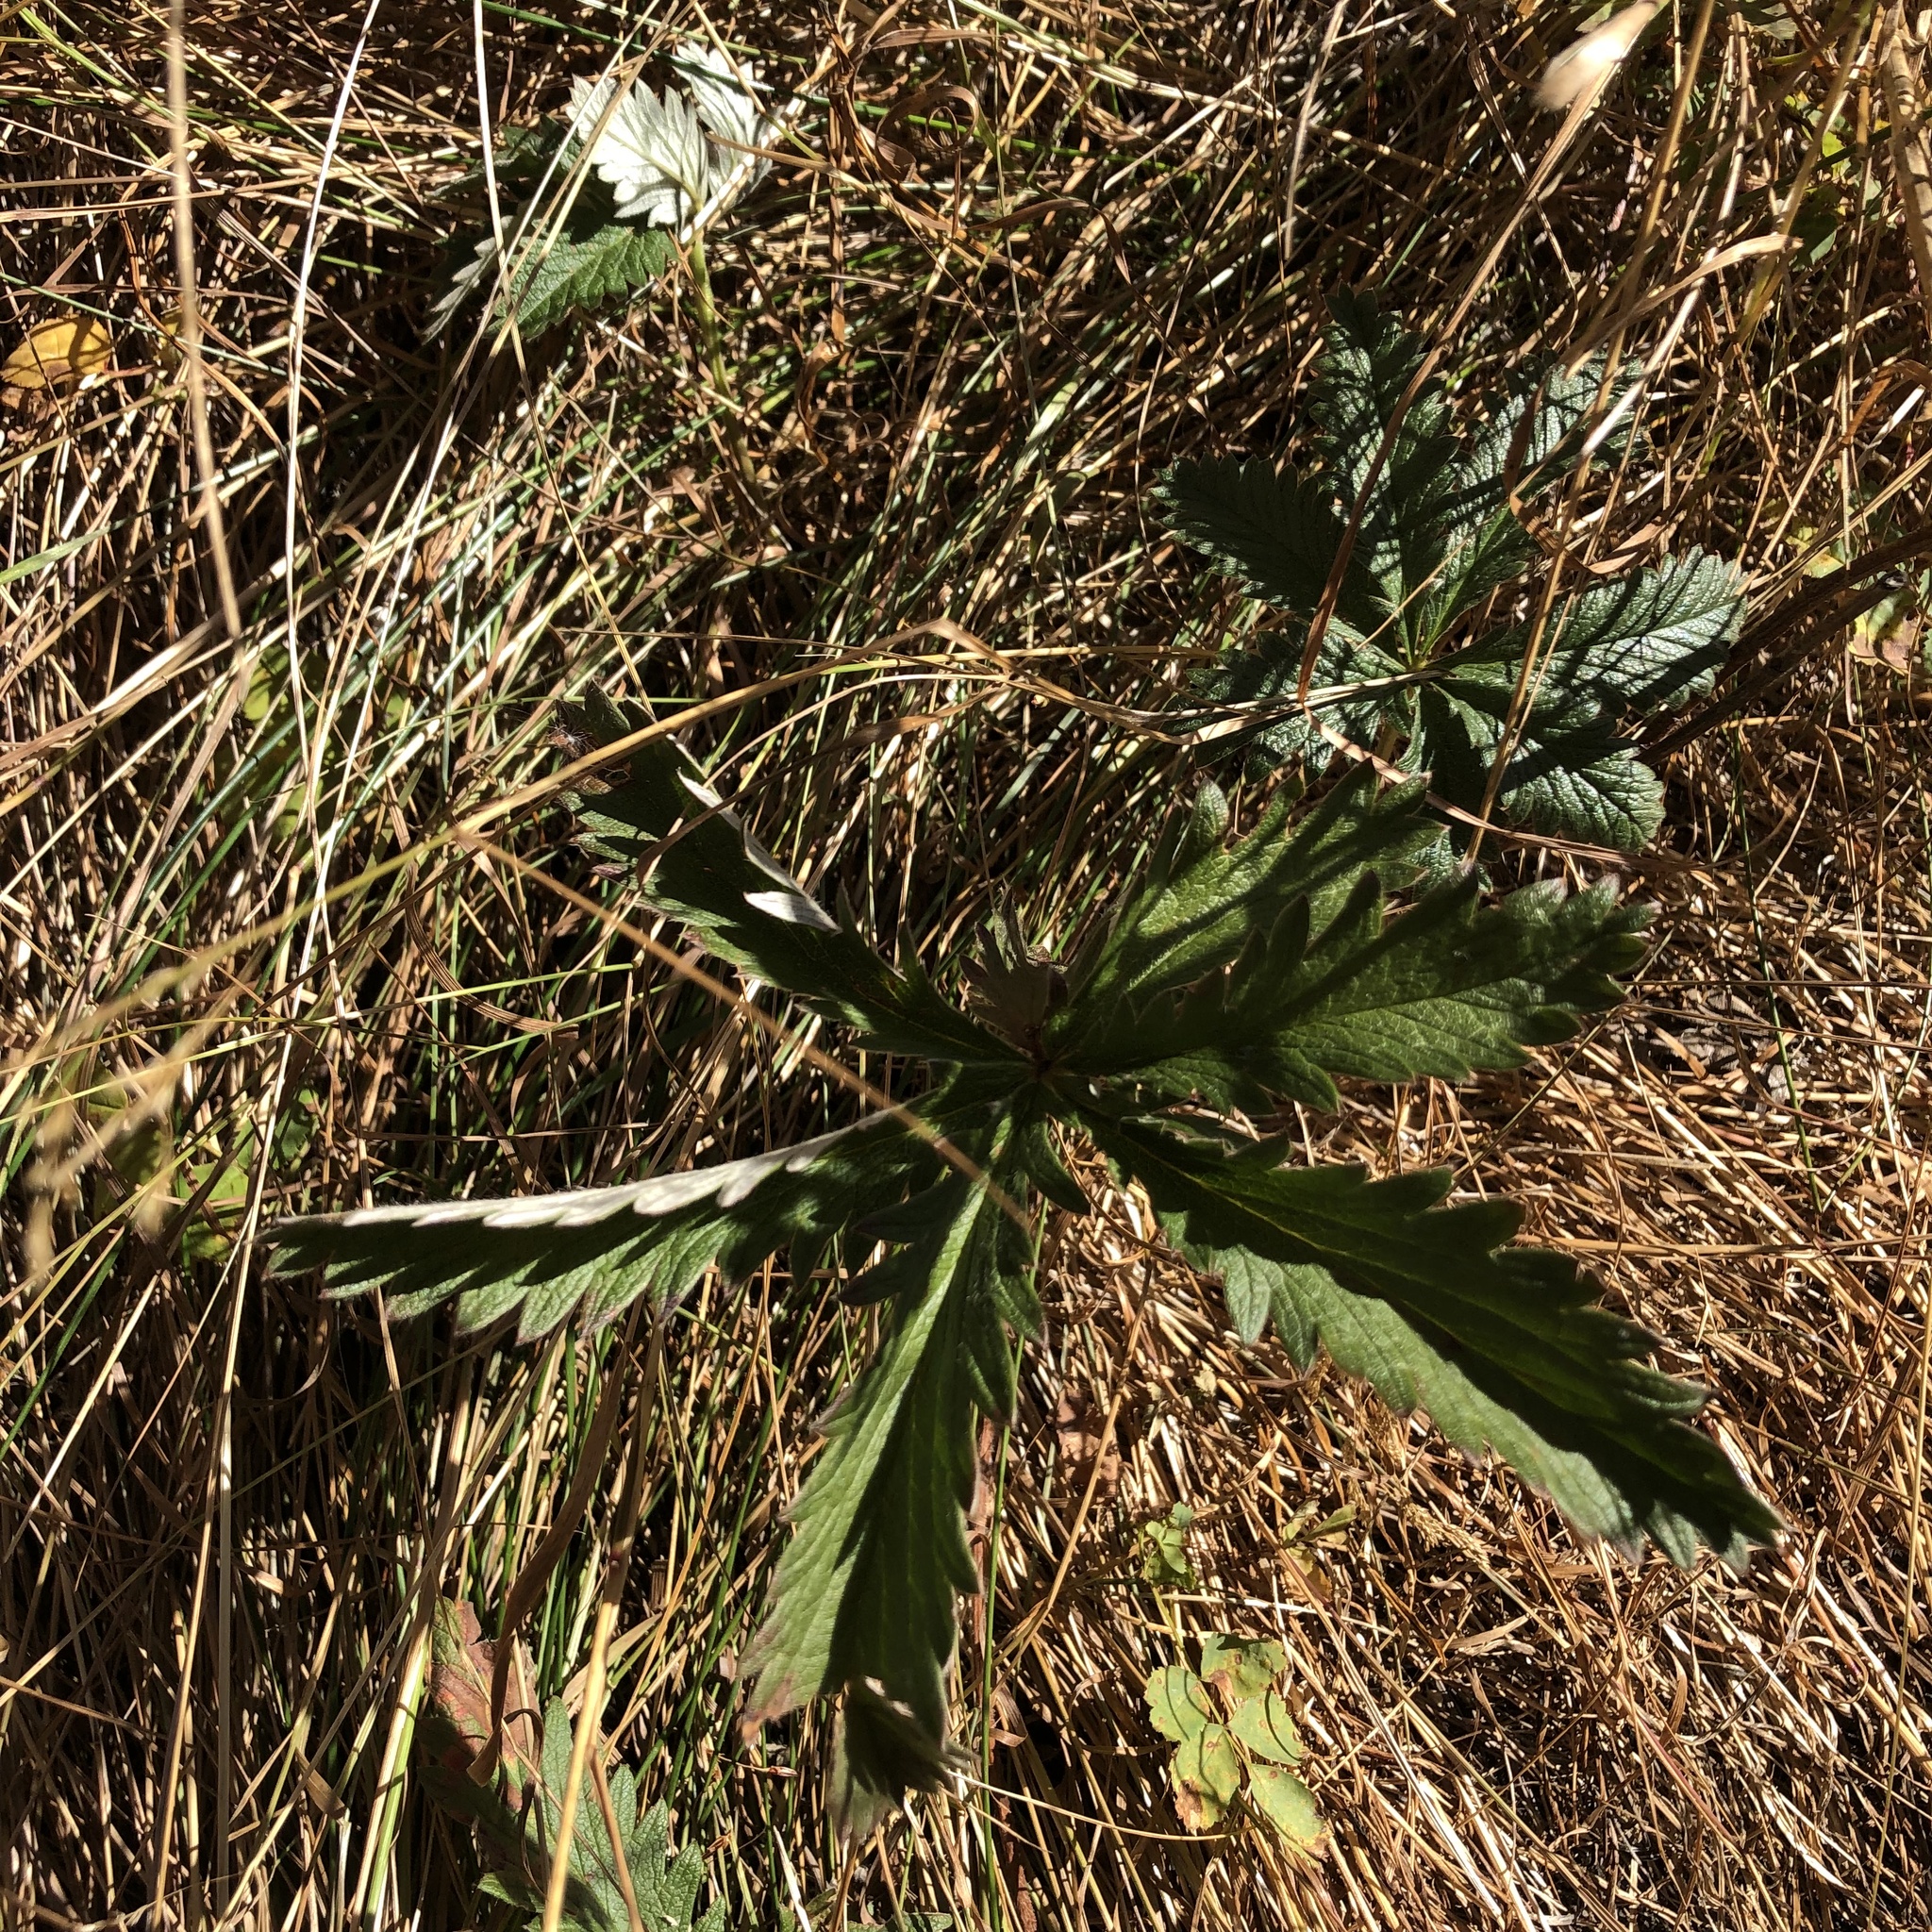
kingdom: Plantae
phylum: Tracheophyta
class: Magnoliopsida
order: Rosales
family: Rosaceae
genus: Potentilla
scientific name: Potentilla gracilis
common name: Graceful cinquefoil
